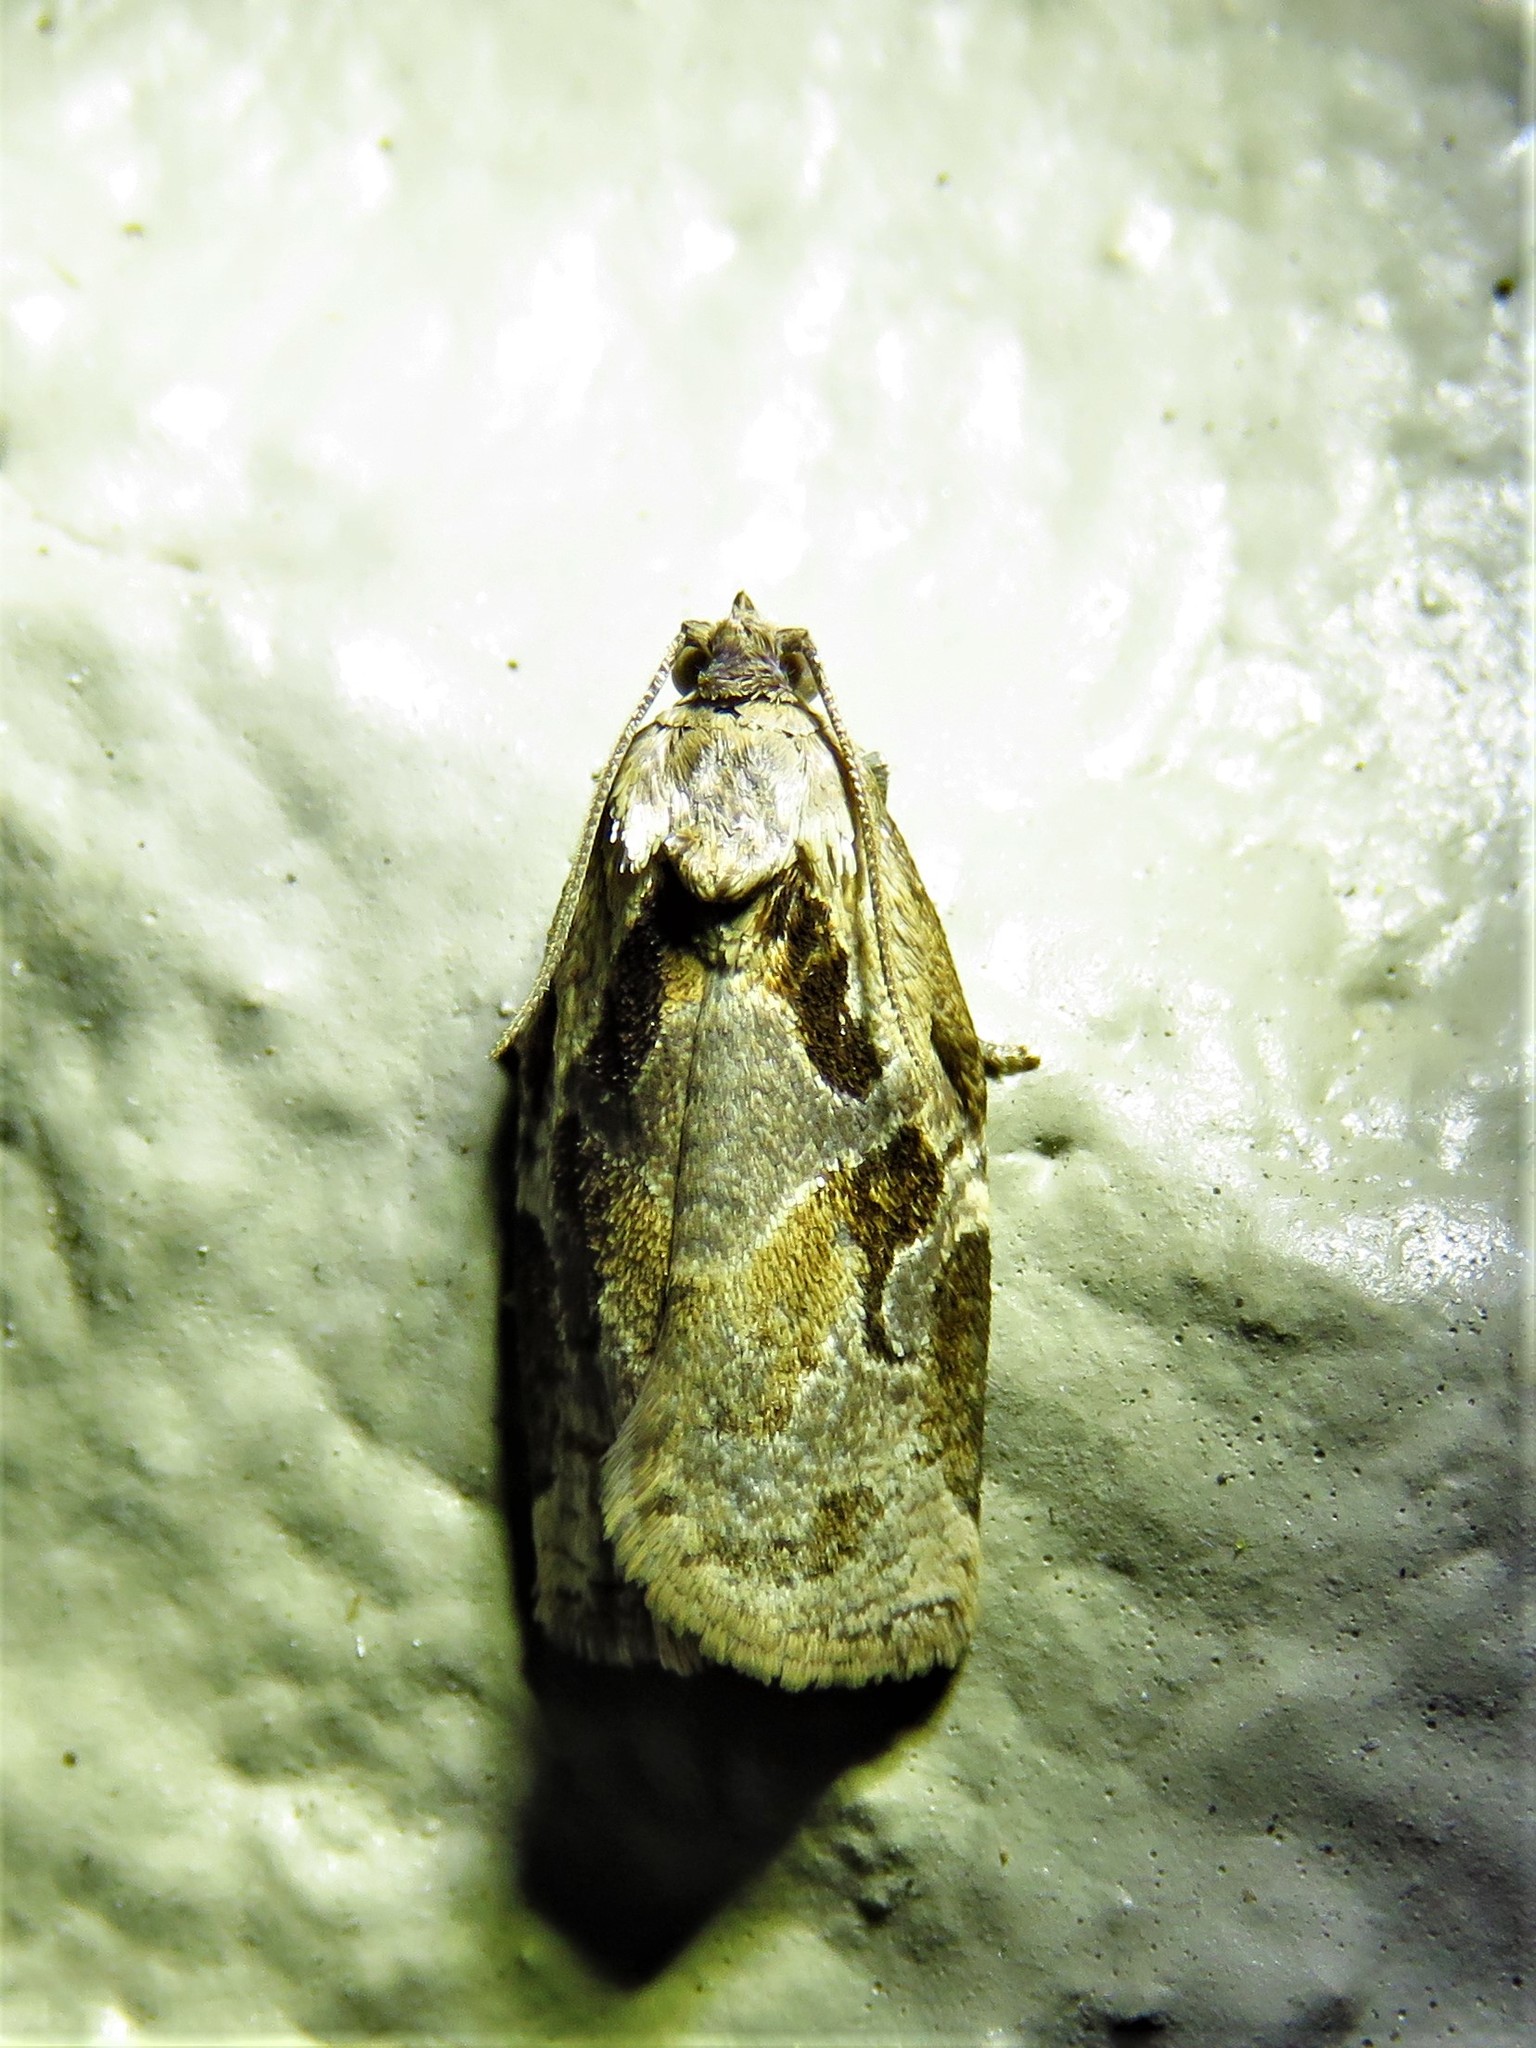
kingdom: Animalia
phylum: Arthropoda
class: Insecta
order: Lepidoptera
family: Tortricidae
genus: Archips
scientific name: Archips grisea
